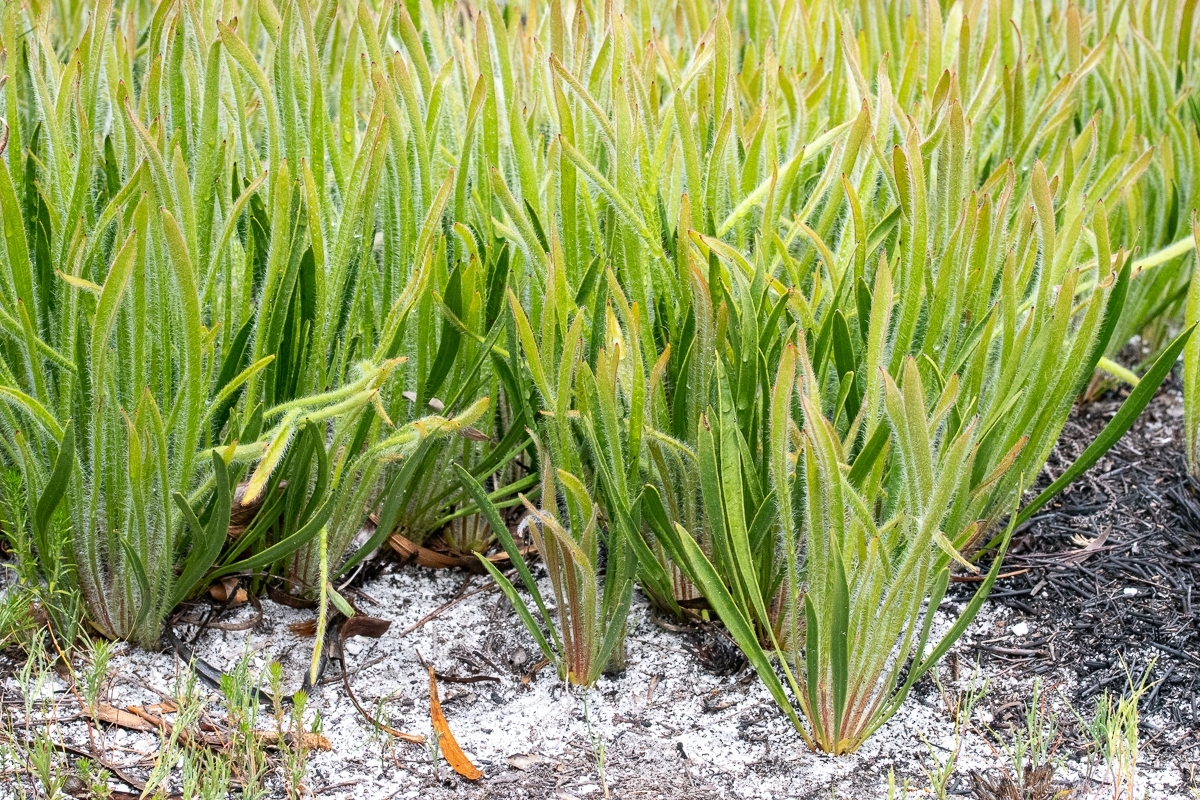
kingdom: Plantae
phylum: Tracheophyta
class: Magnoliopsida
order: Proteales
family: Proteaceae
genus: Protea
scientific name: Protea scabra
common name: Sandpaper-leaf sugarbush
